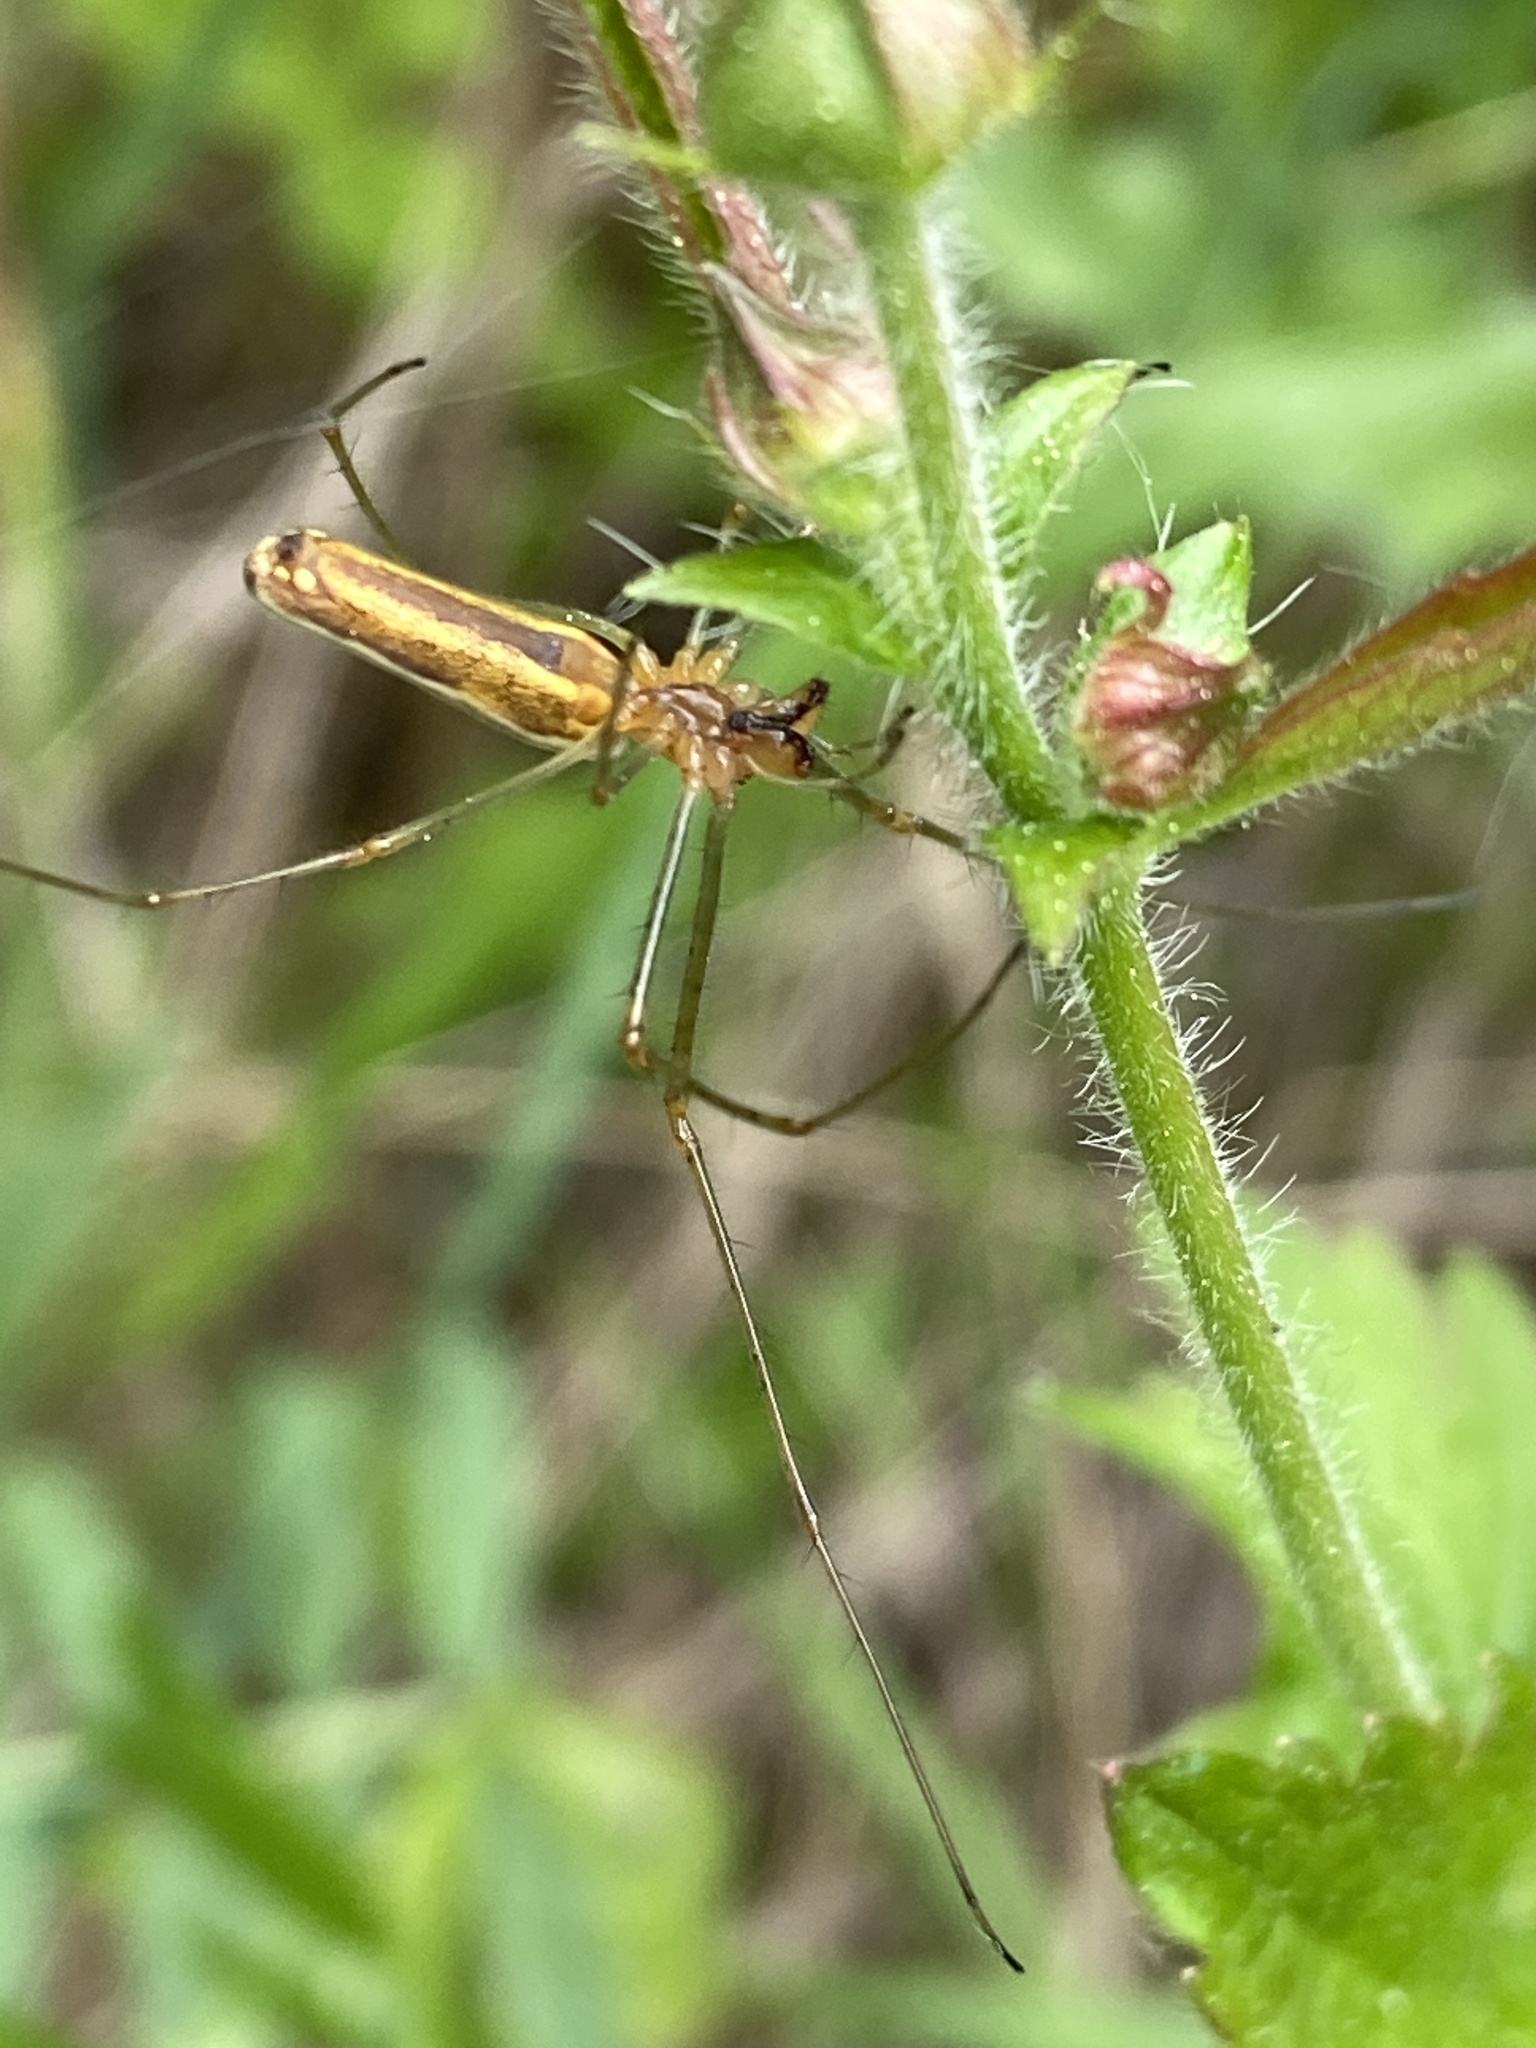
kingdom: Animalia
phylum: Arthropoda
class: Arachnida
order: Araneae
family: Tetragnathidae
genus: Tetragnatha
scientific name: Tetragnatha extensa
